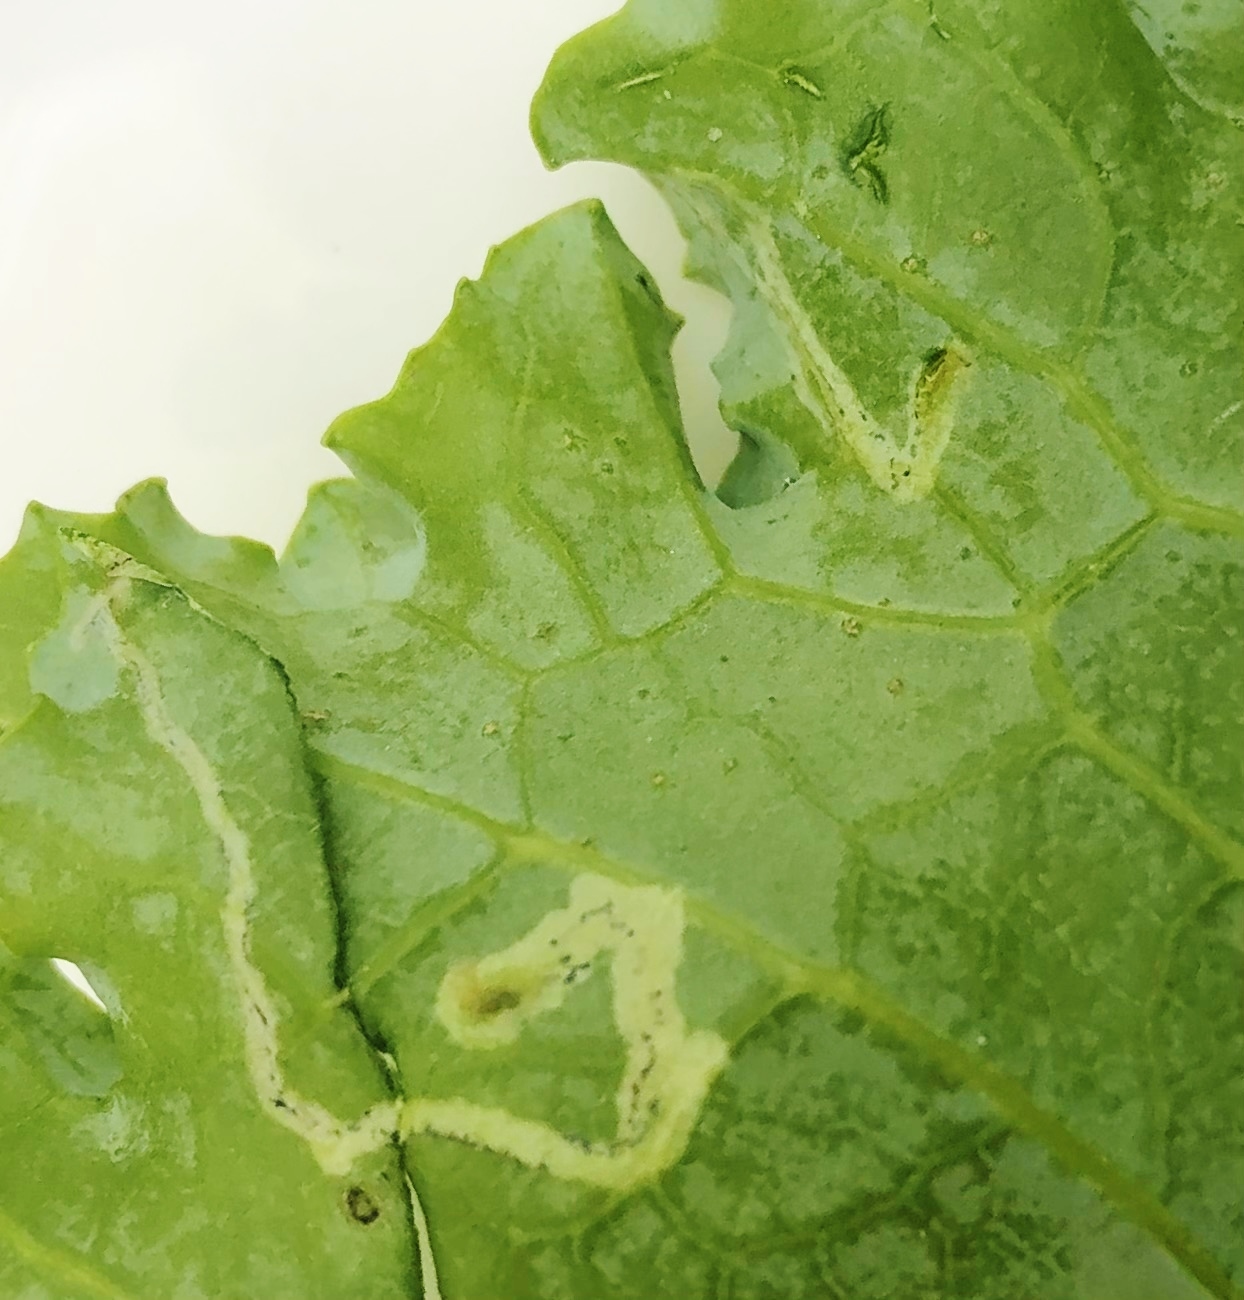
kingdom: Animalia
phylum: Arthropoda
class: Insecta
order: Diptera
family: Agromyzidae
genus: Liriomyza
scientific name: Liriomyza brassicae
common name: Serpentine leaf miner
